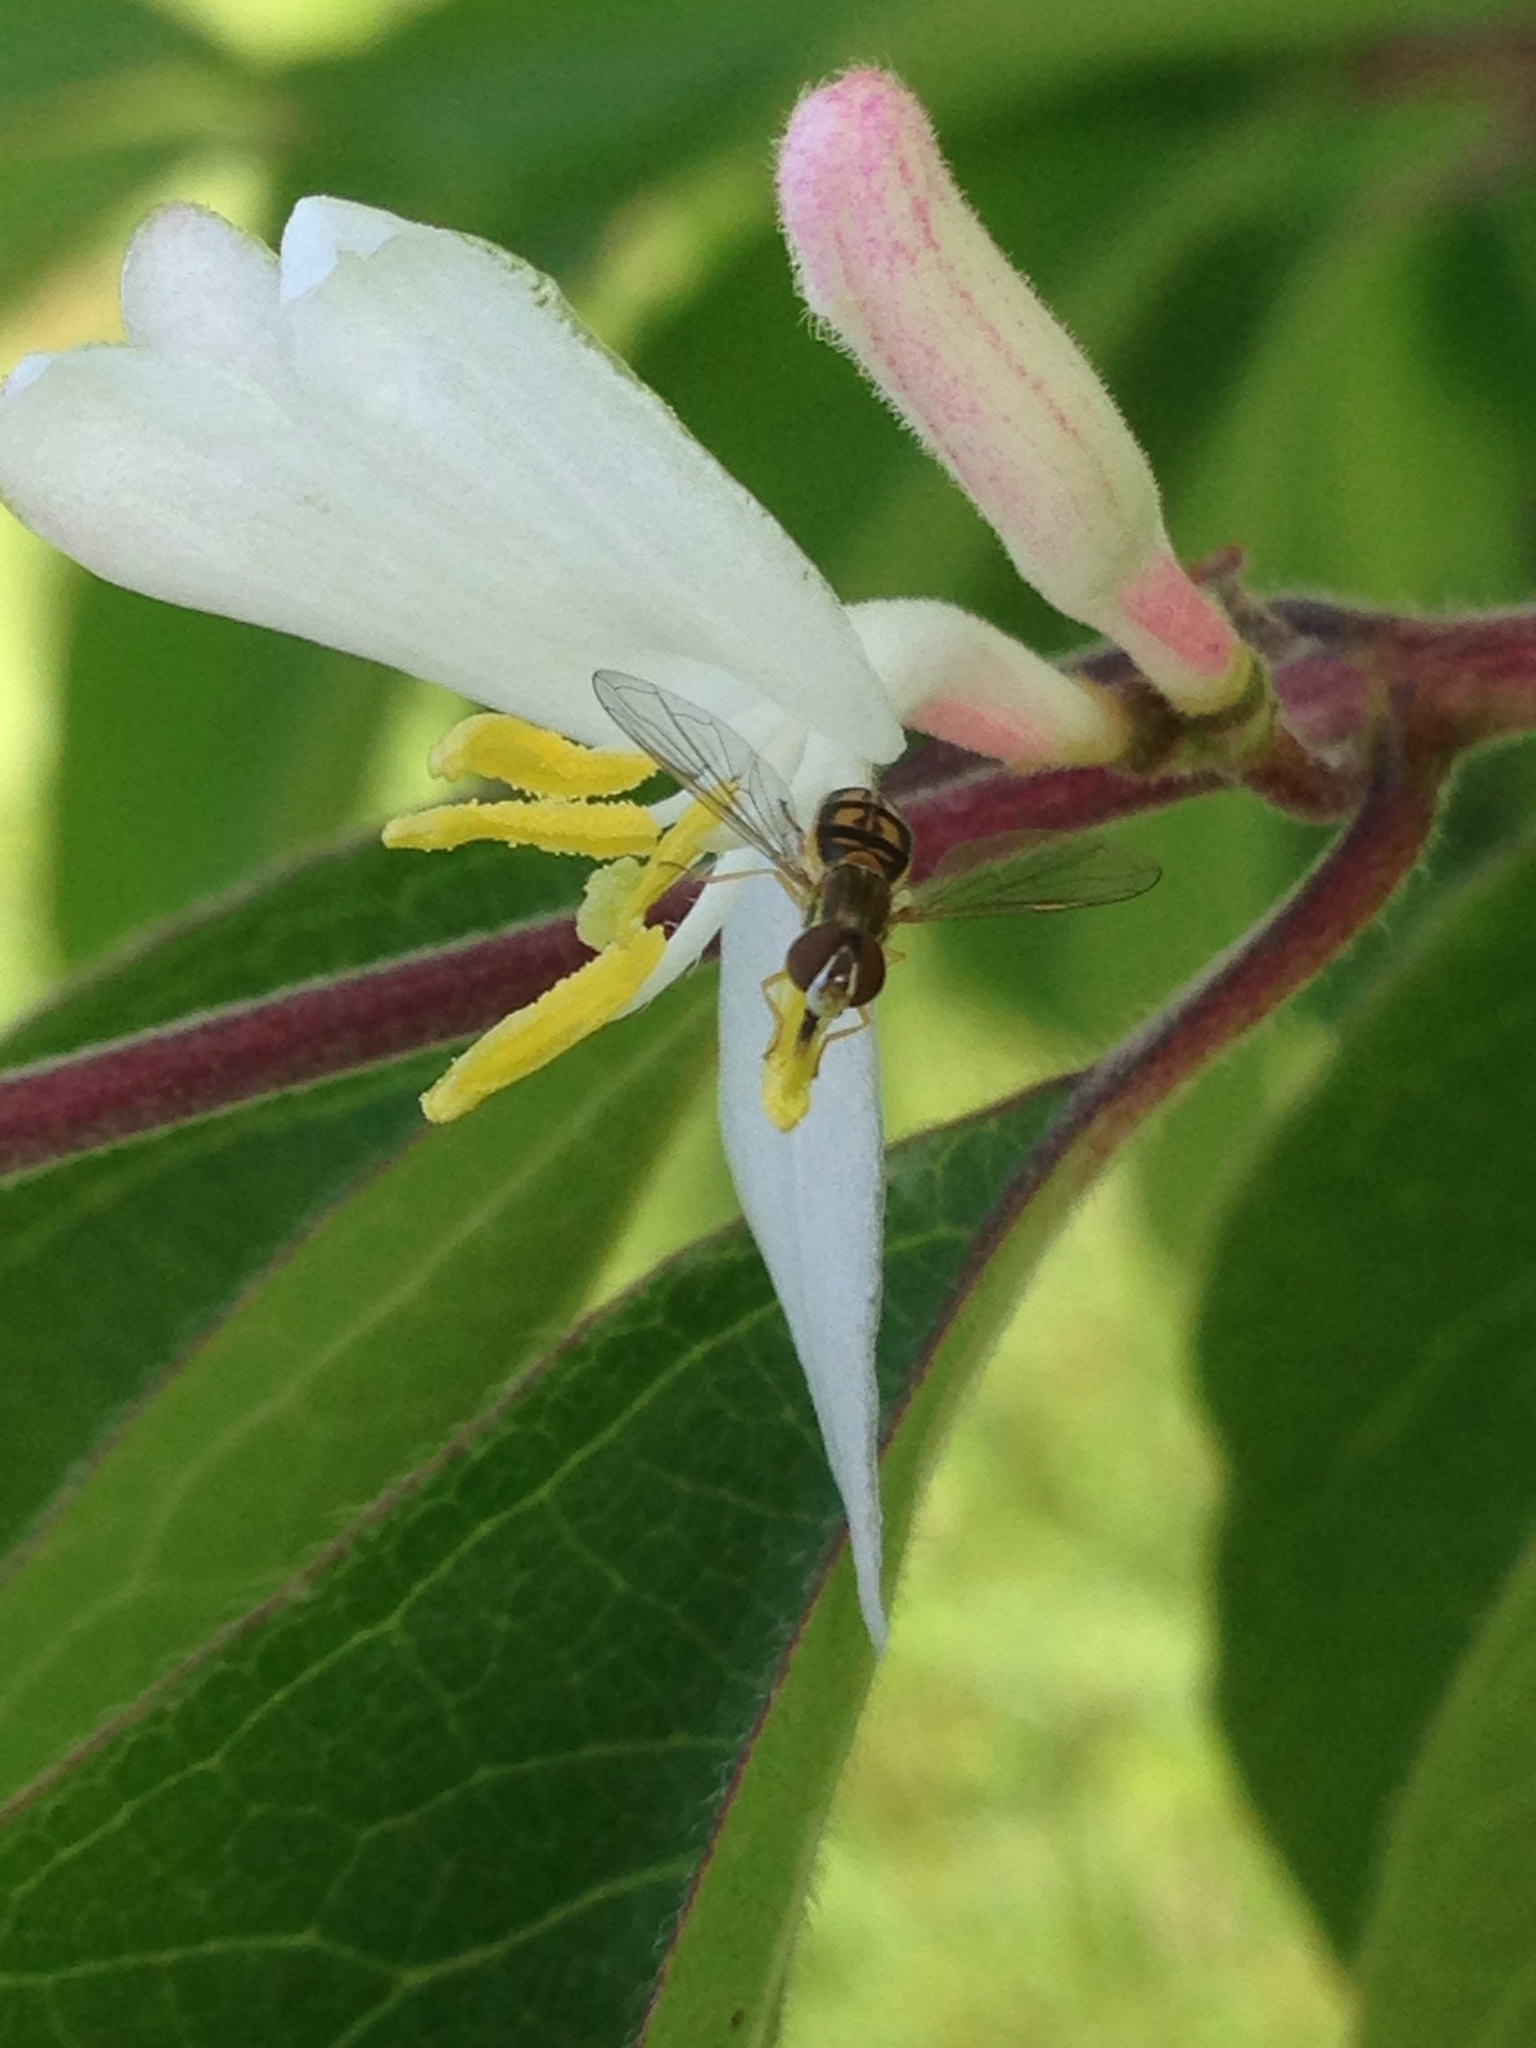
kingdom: Animalia
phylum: Arthropoda
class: Insecta
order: Diptera
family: Syrphidae
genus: Toxomerus
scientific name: Toxomerus marginatus
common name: Syrphid fly
